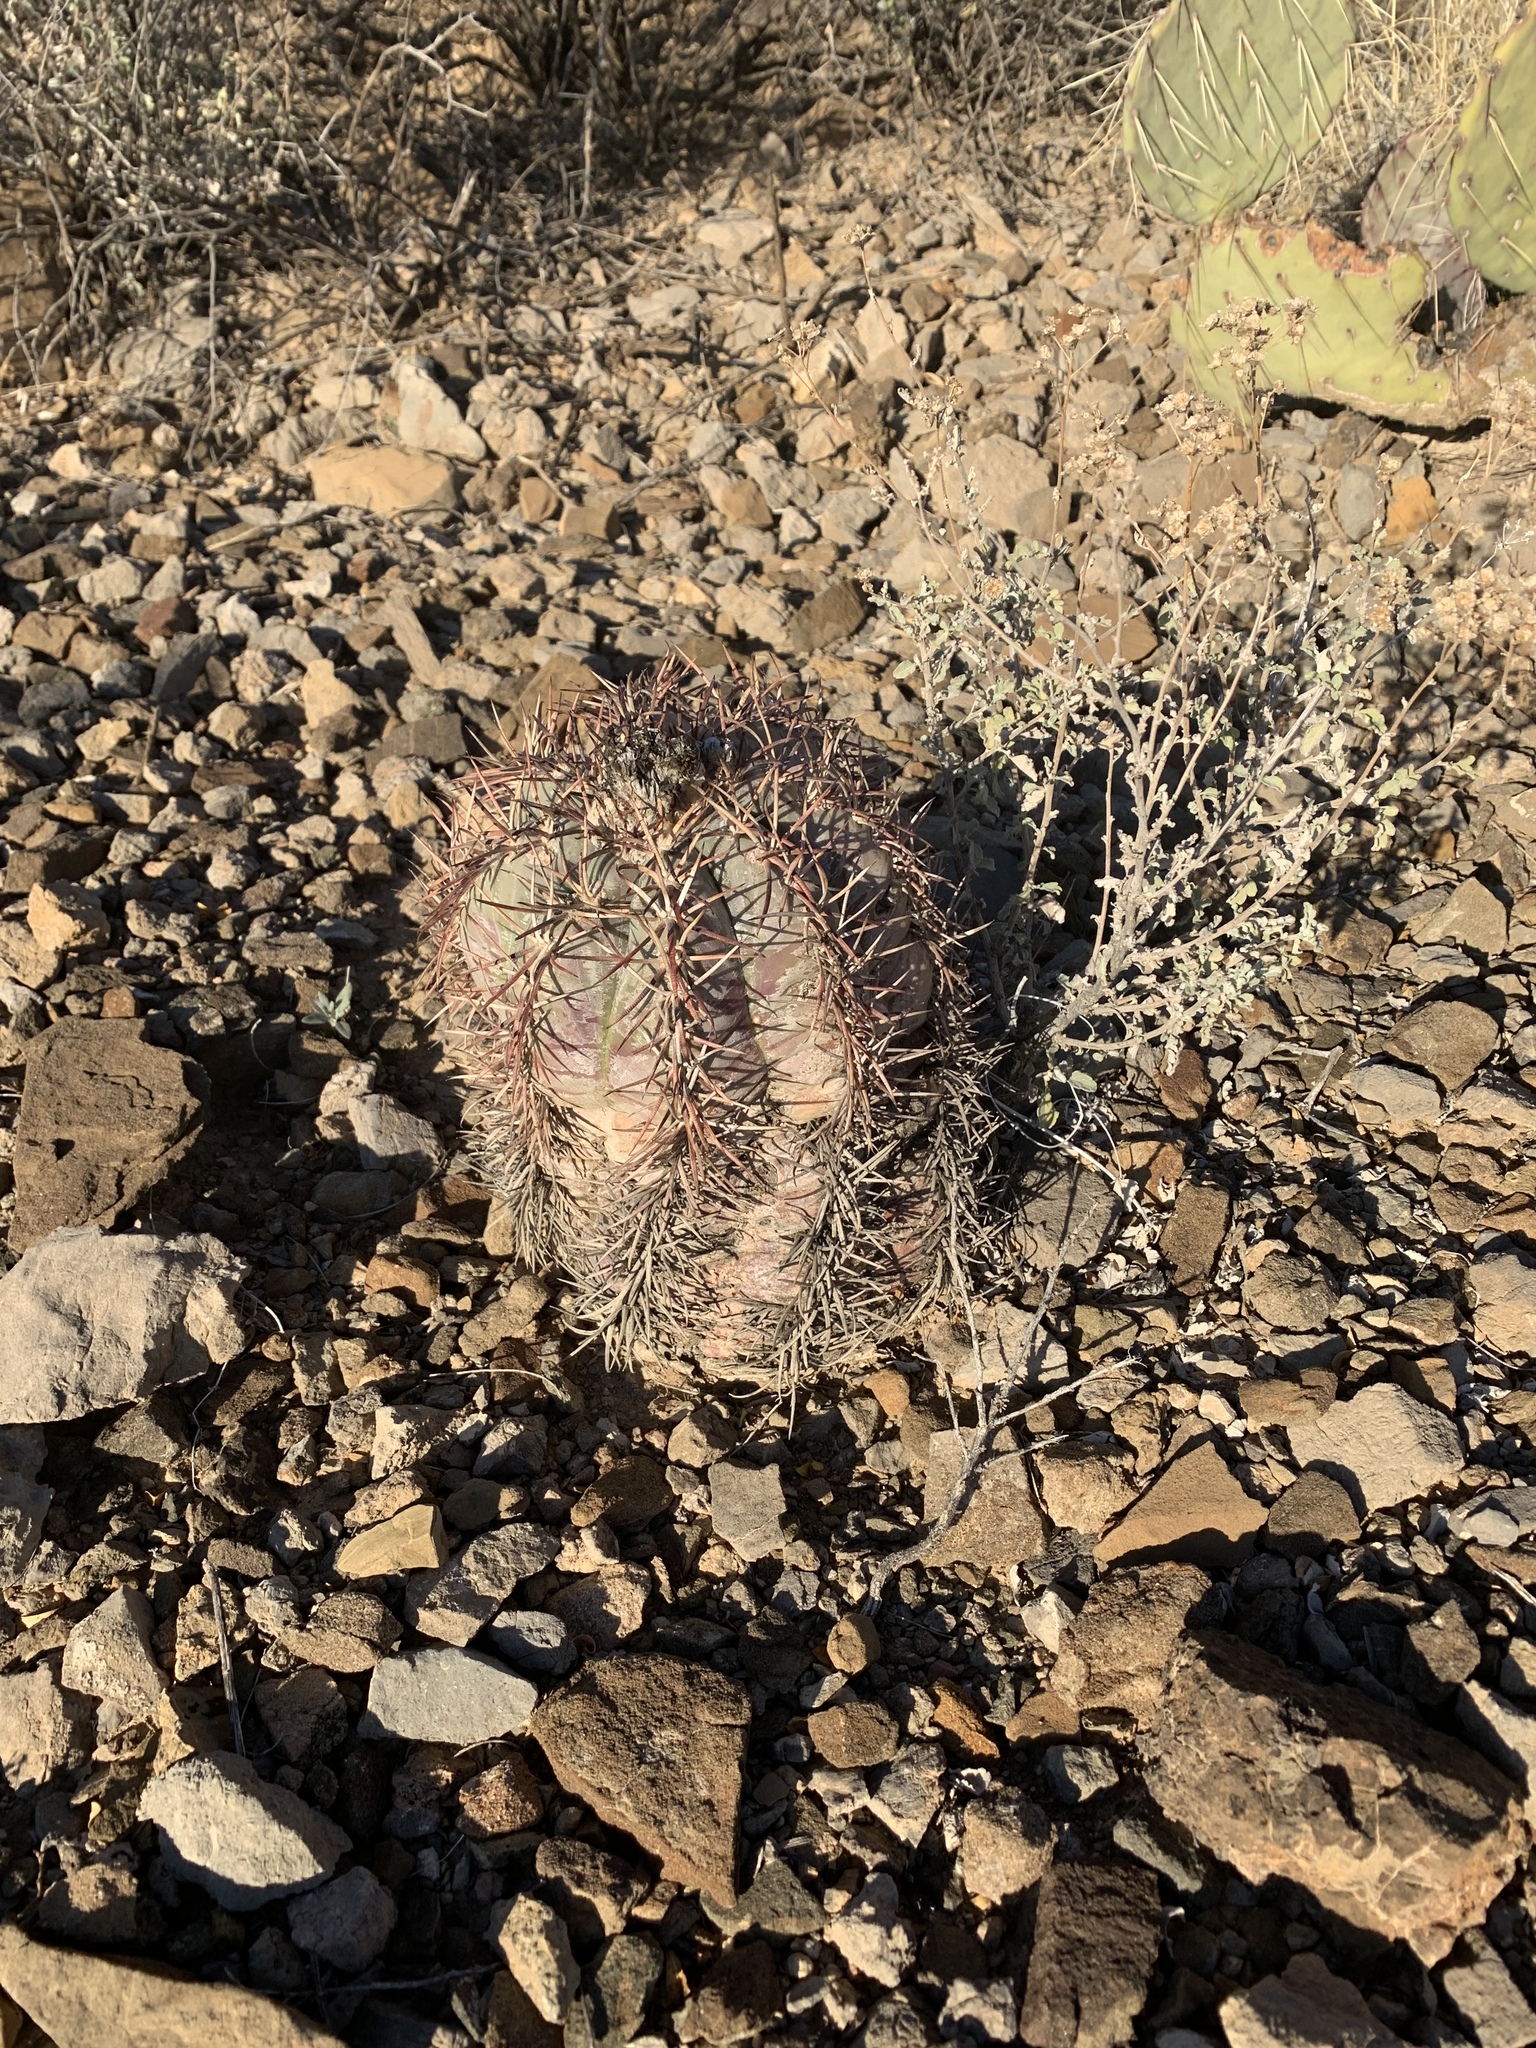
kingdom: Plantae
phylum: Tracheophyta
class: Magnoliopsida
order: Caryophyllales
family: Cactaceae
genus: Echinocactus
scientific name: Echinocactus horizonthalonius
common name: Devilshead
